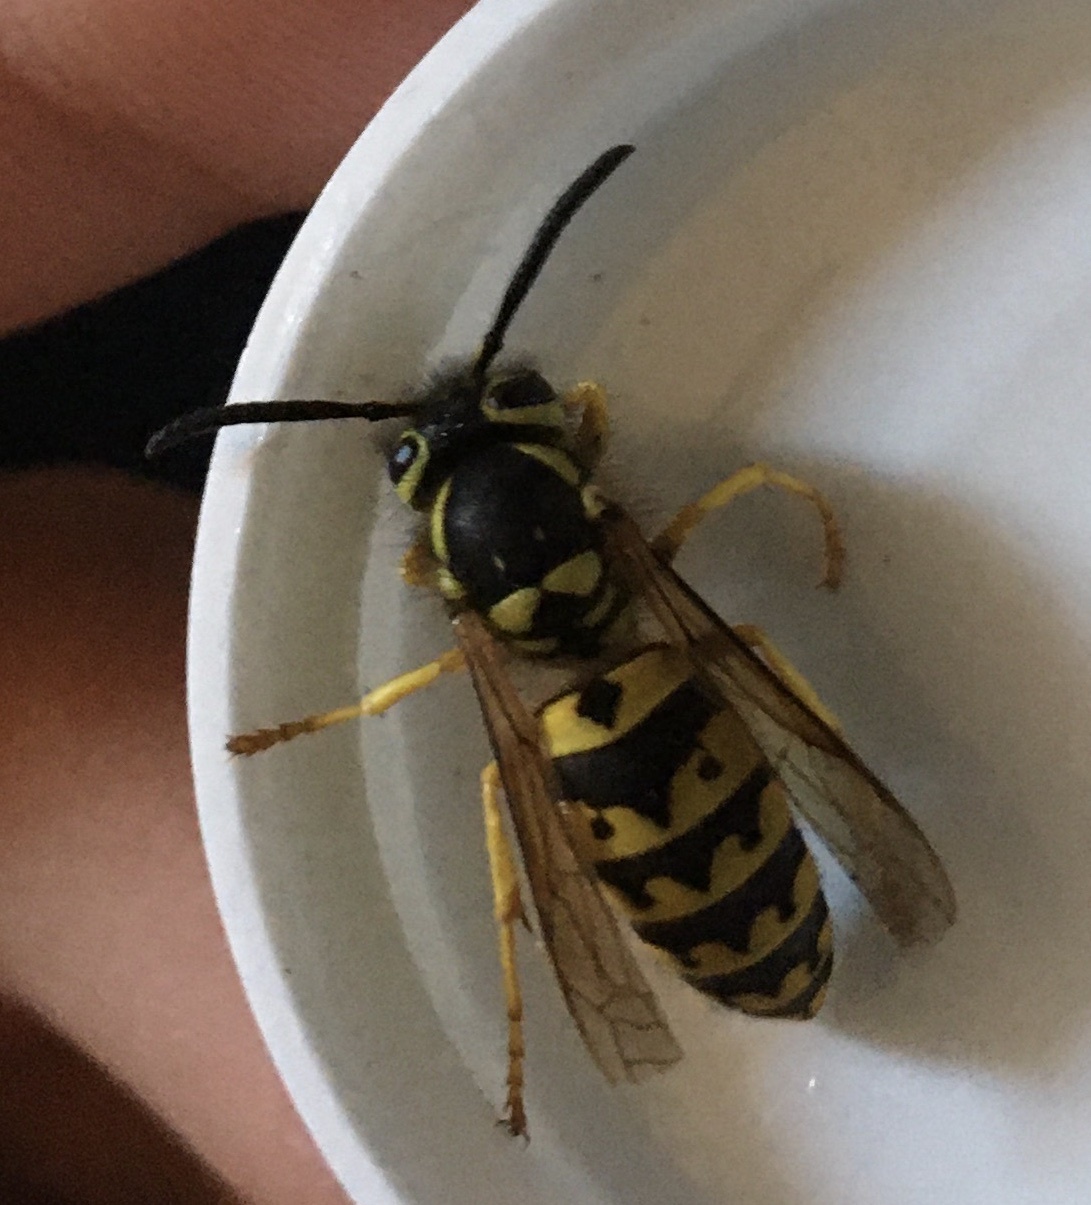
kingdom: Animalia
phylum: Arthropoda
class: Insecta
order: Hymenoptera
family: Vespidae
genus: Vespula
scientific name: Vespula pensylvanica
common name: Western yellowjacket
